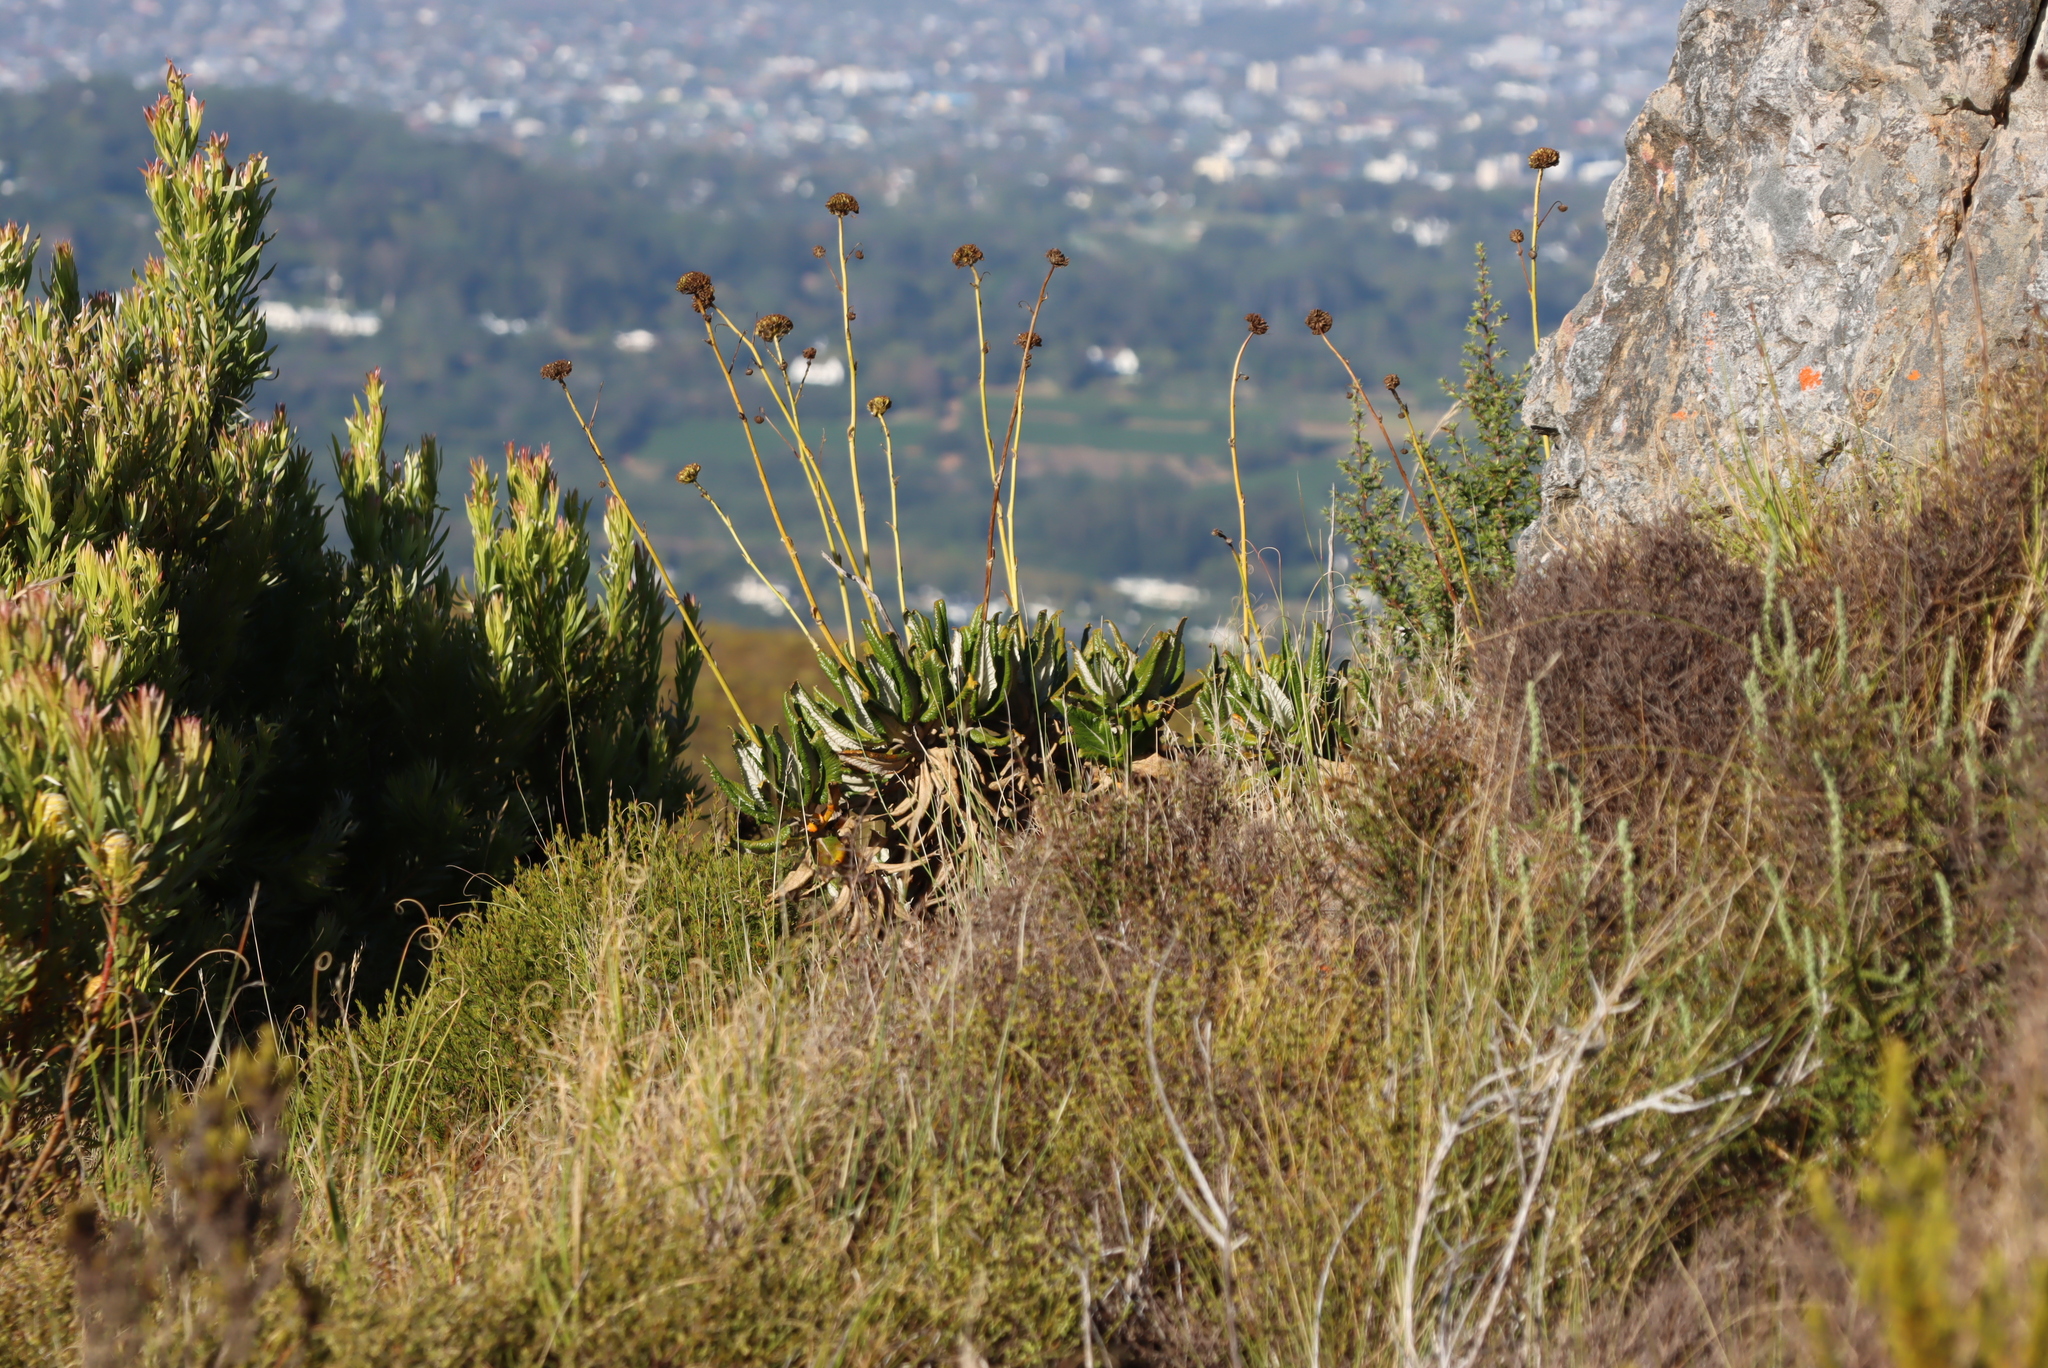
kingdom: Plantae
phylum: Tracheophyta
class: Magnoliopsida
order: Apiales
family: Apiaceae
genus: Hermas
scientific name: Hermas villosa
